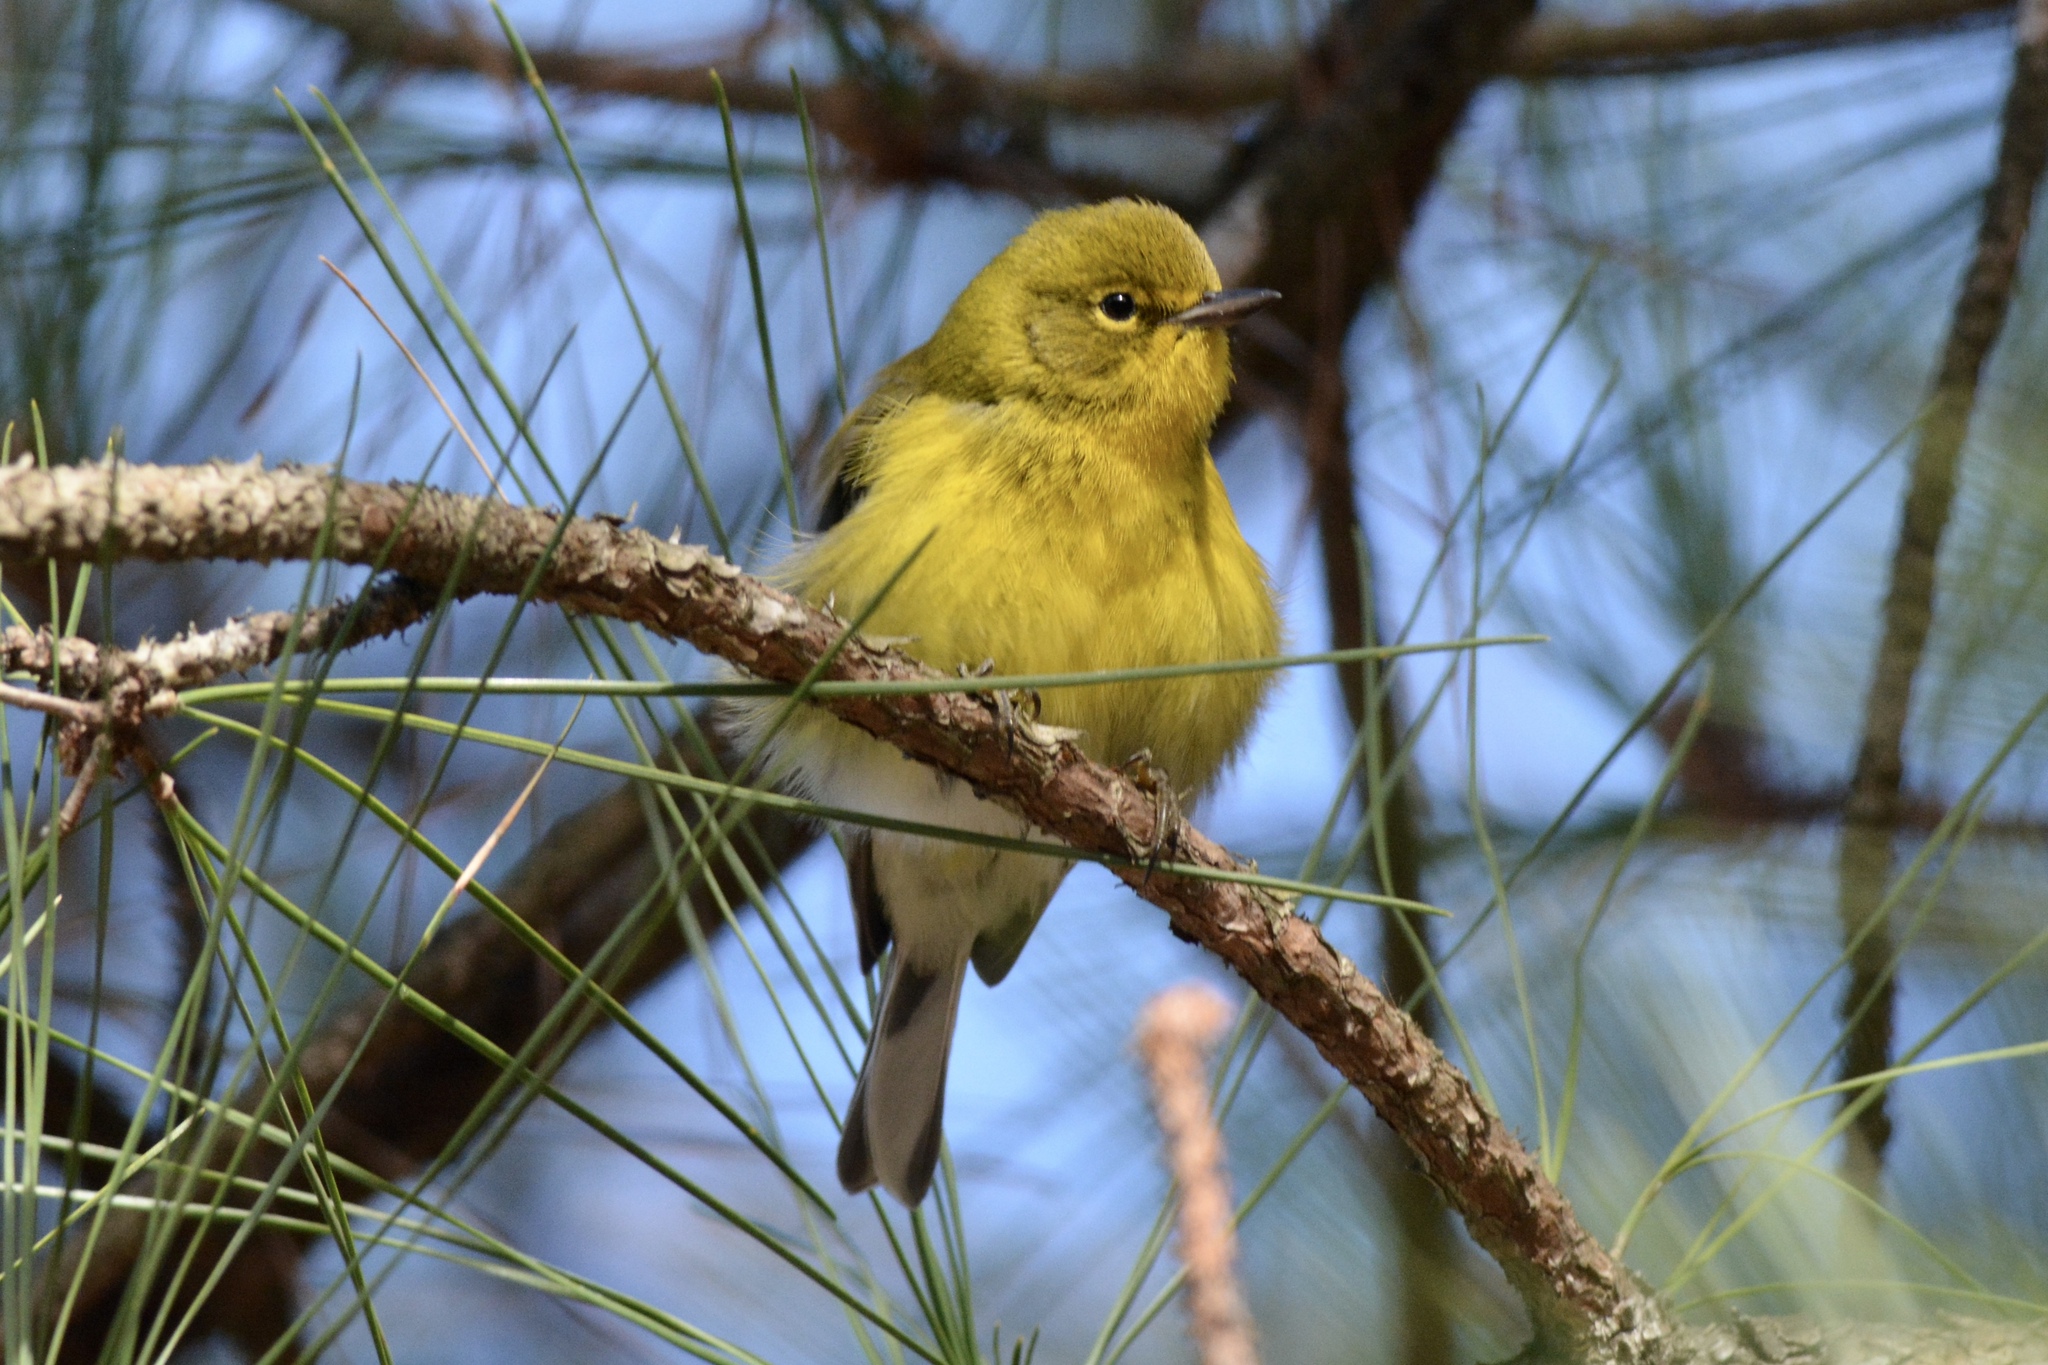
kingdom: Animalia
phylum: Chordata
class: Aves
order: Passeriformes
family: Parulidae
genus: Setophaga
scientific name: Setophaga pinus
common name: Pine warbler
